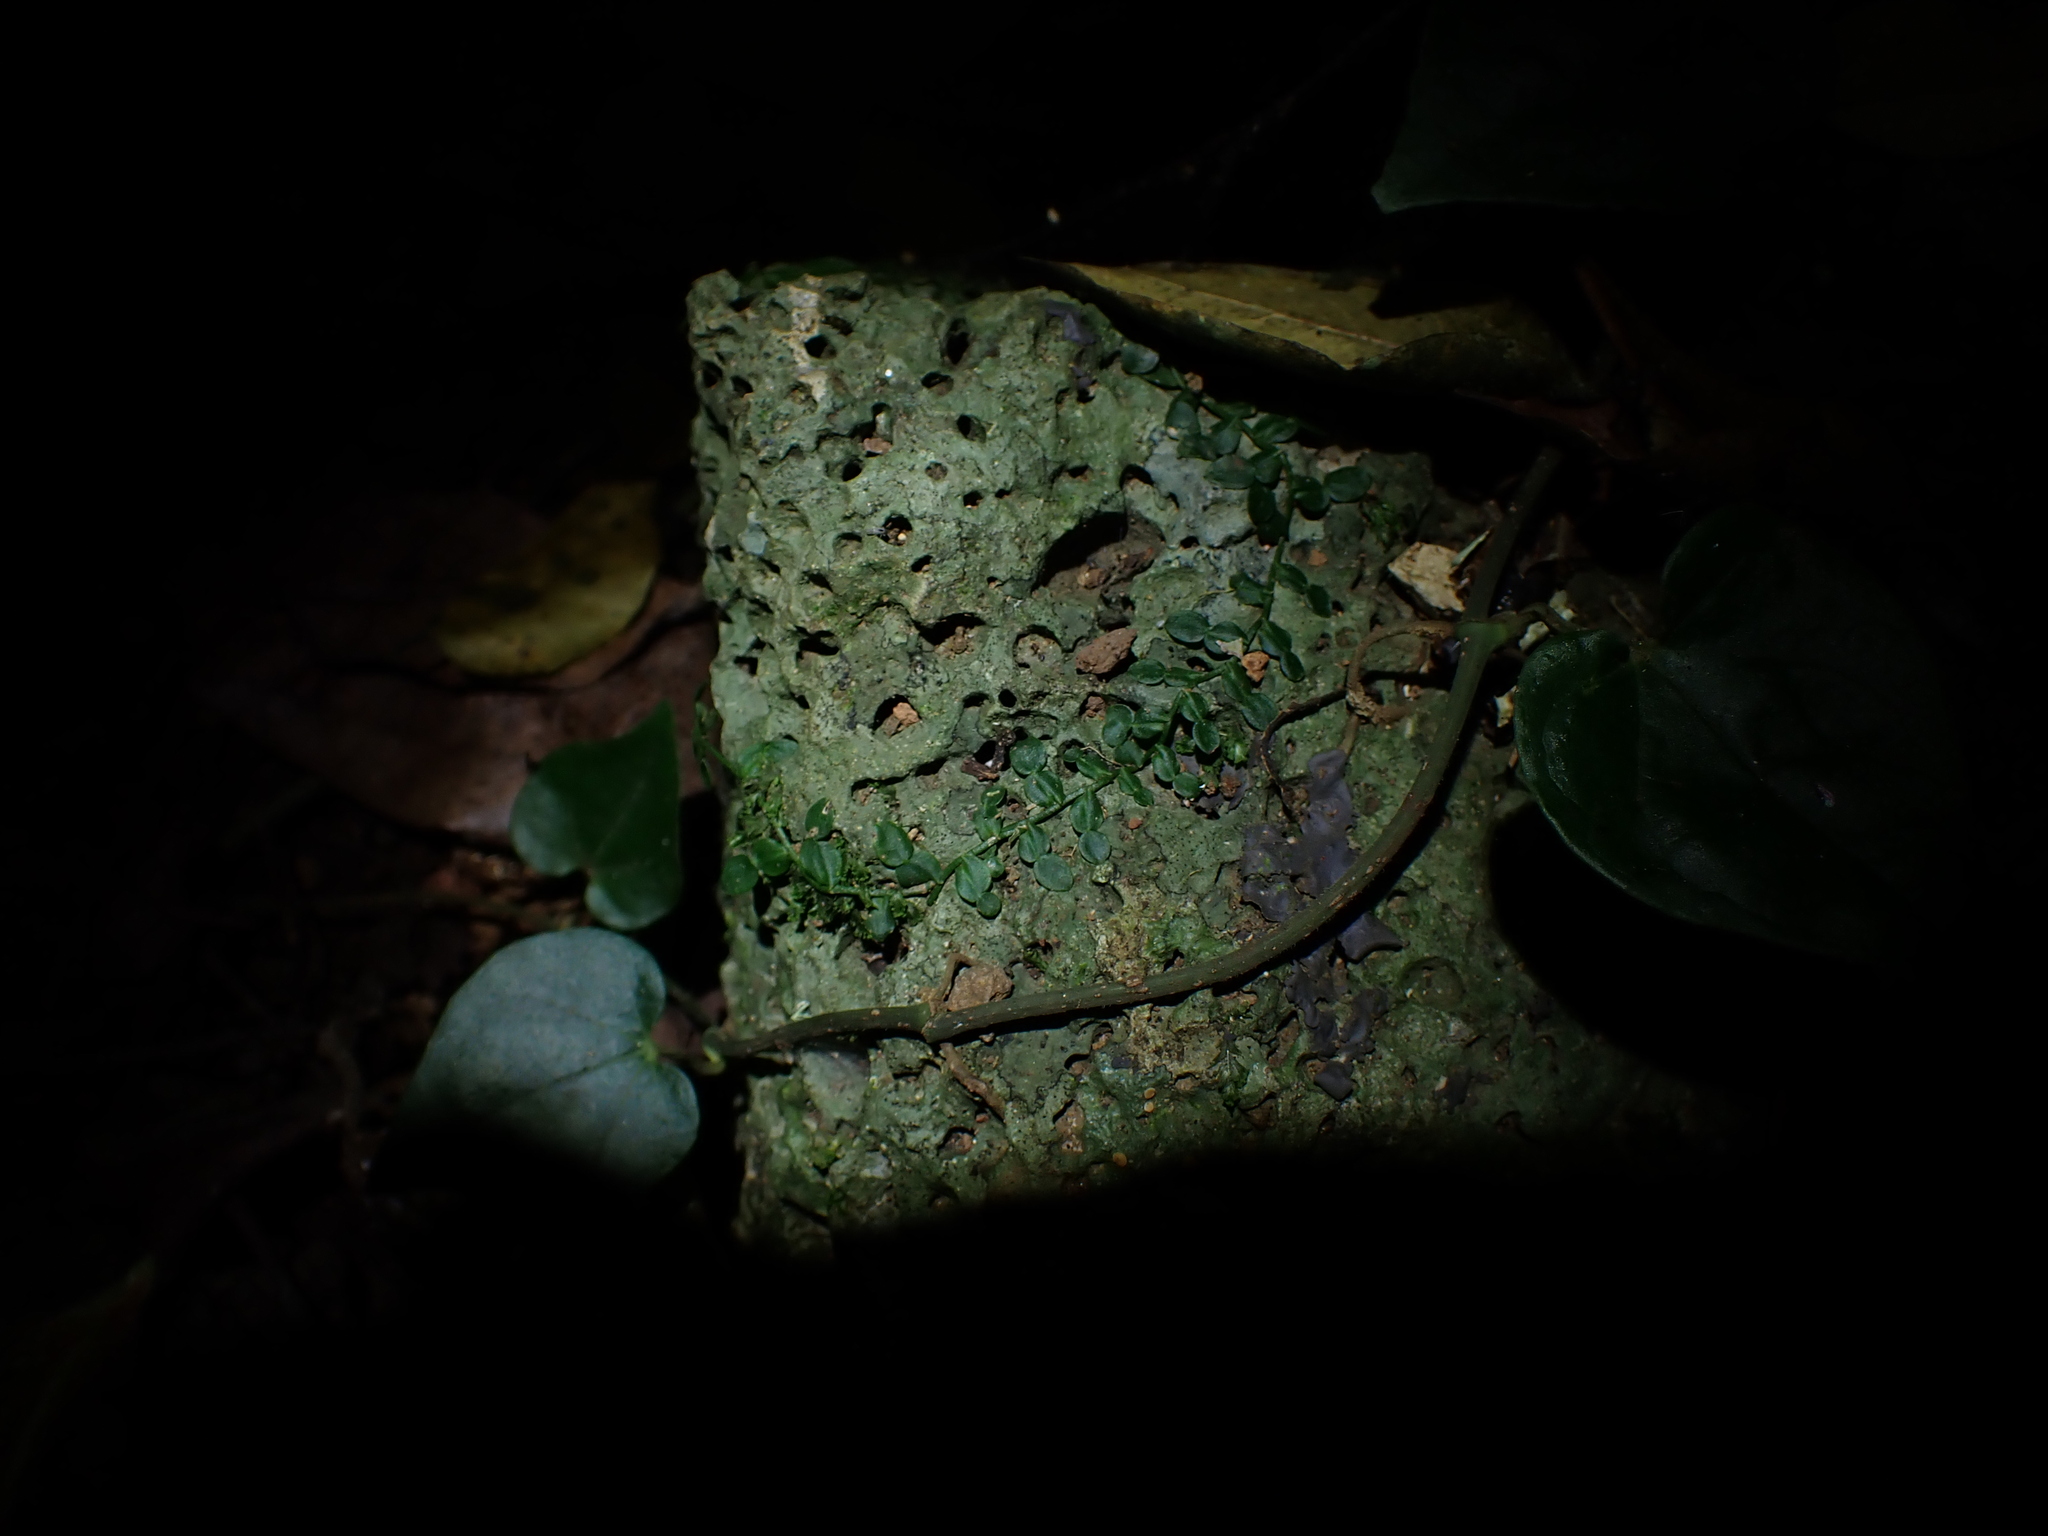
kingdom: Plantae
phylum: Tracheophyta
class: Liliopsida
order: Alismatales
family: Araceae
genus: Pothos
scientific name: Pothos longipes
